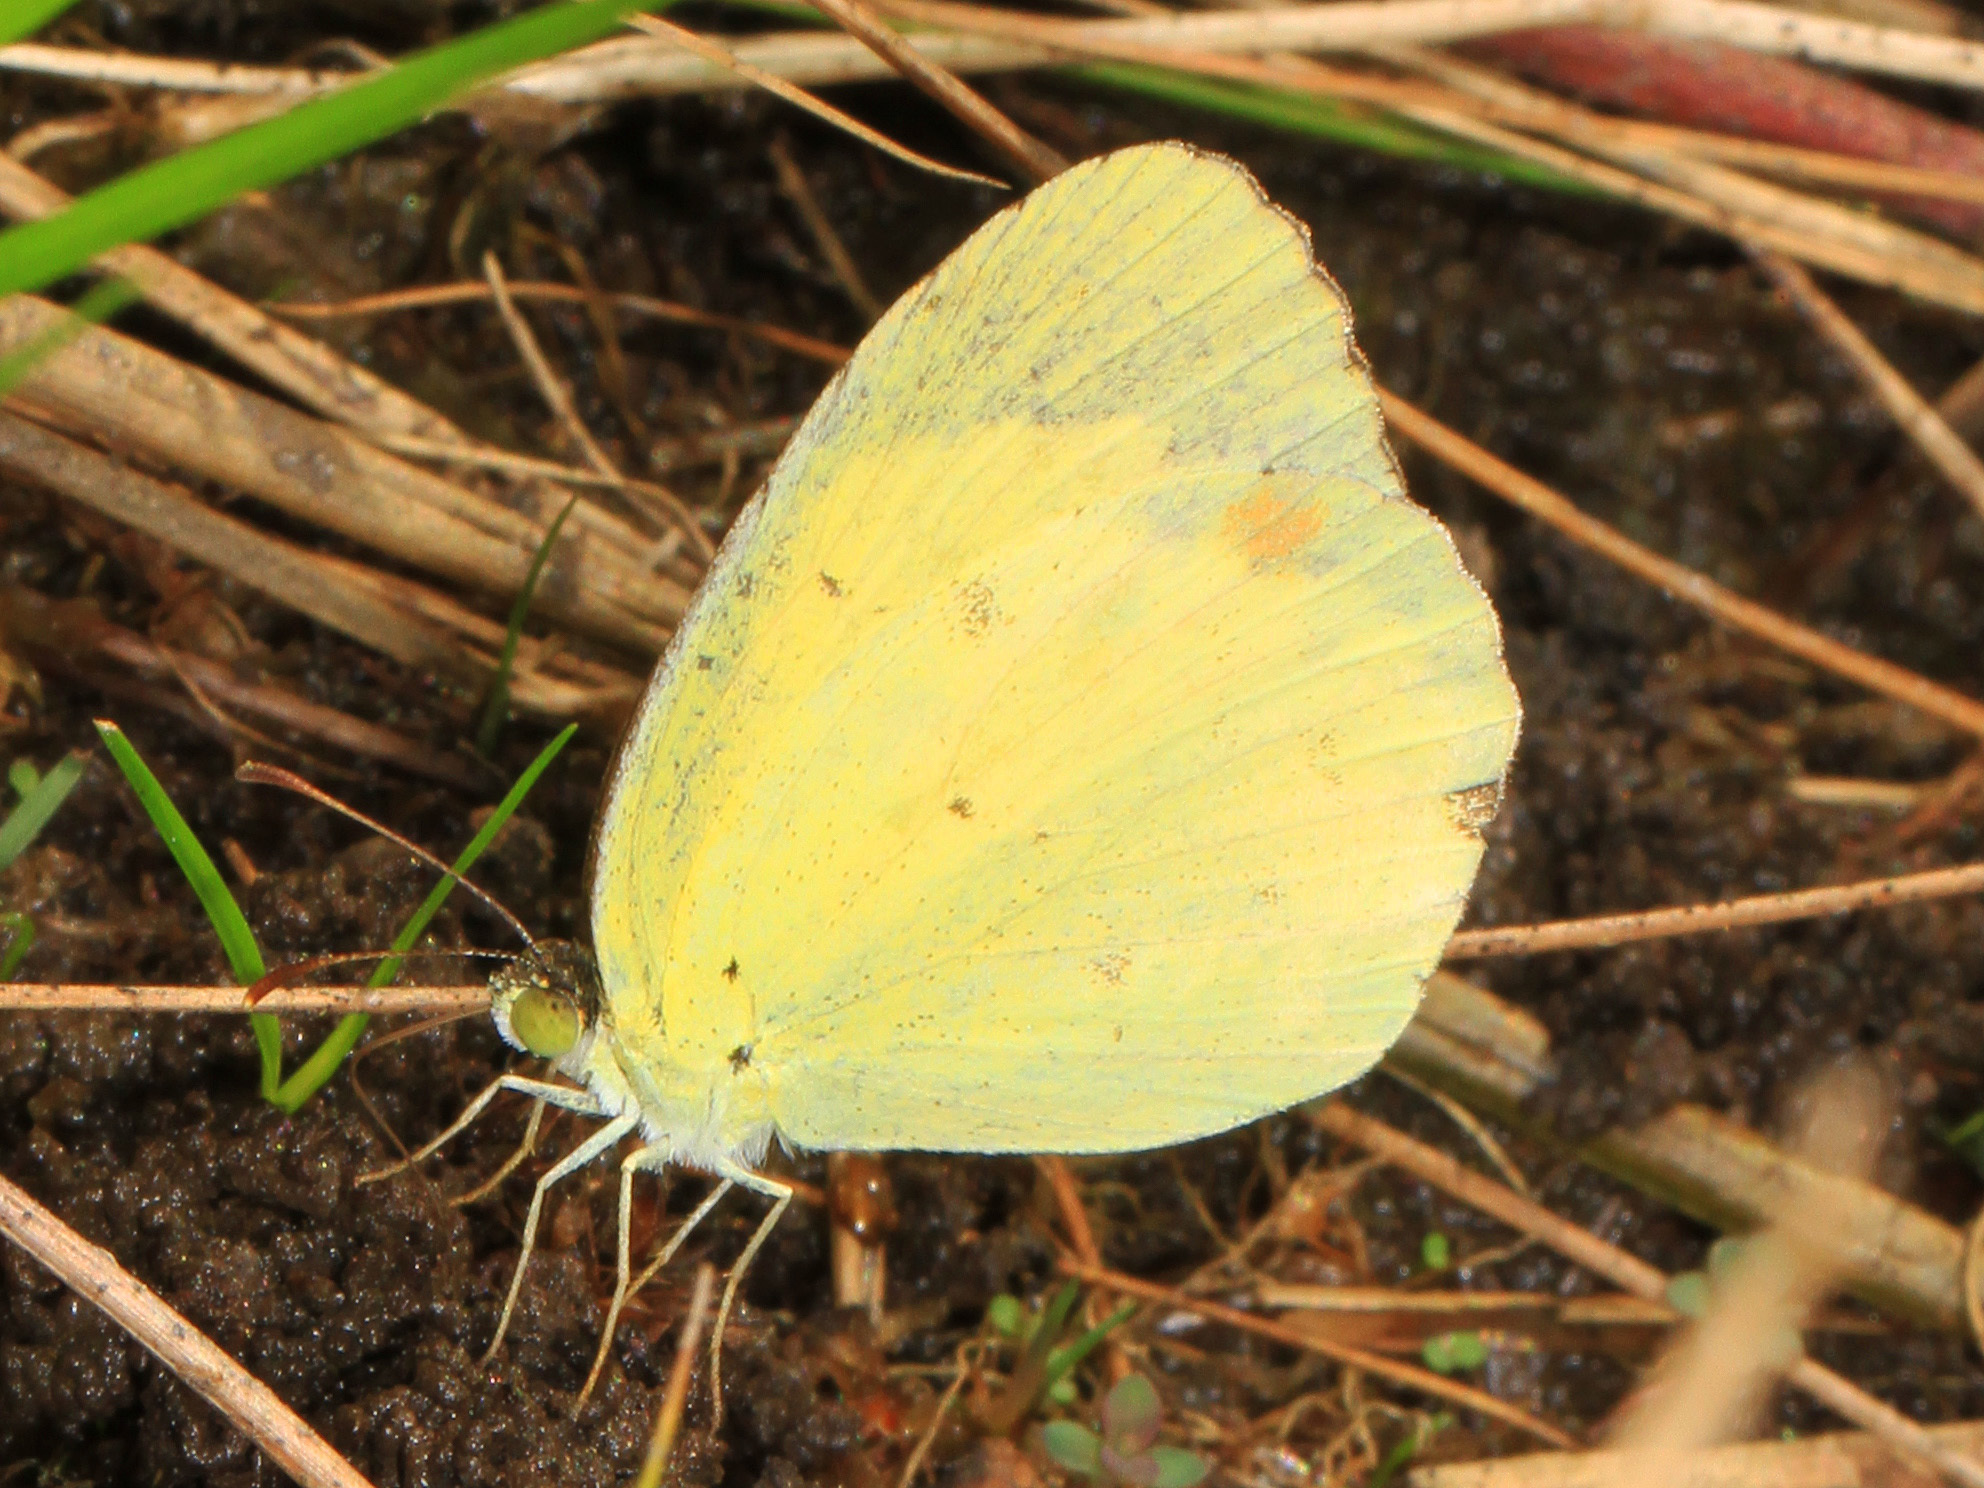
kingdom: Animalia
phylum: Arthropoda
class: Insecta
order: Lepidoptera
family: Pieridae
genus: Pyrisitia
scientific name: Pyrisitia lisa
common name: Little yellow
